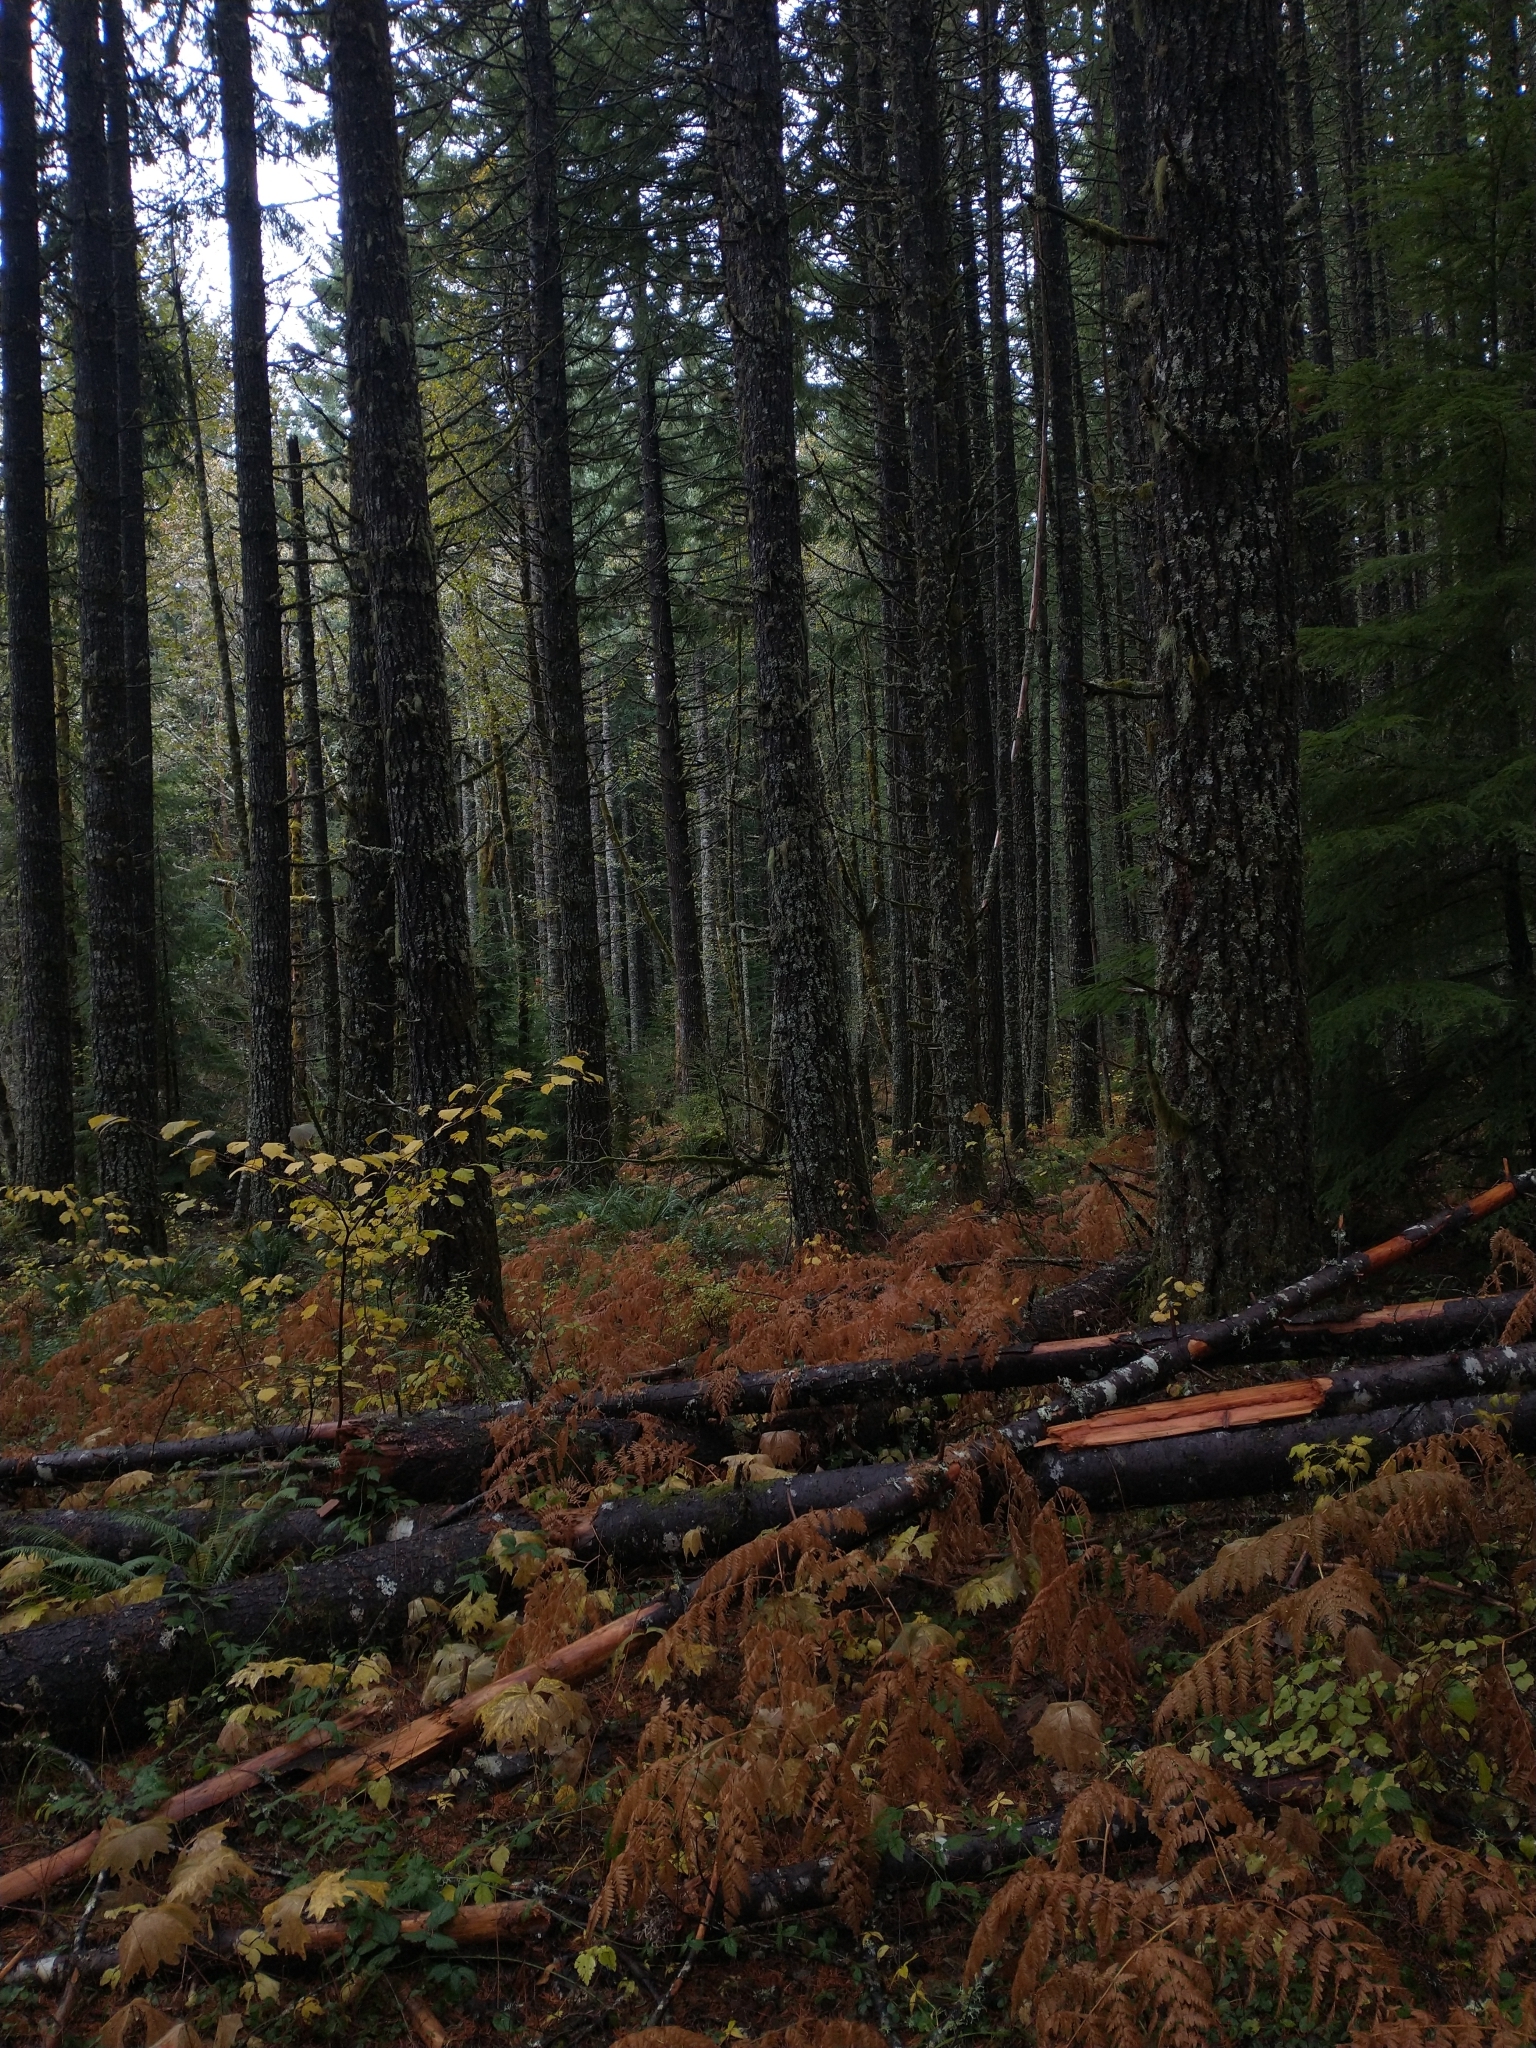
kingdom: Plantae
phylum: Tracheophyta
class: Pinopsida
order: Pinales
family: Pinaceae
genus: Pseudotsuga
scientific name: Pseudotsuga menziesii
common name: Douglas fir
